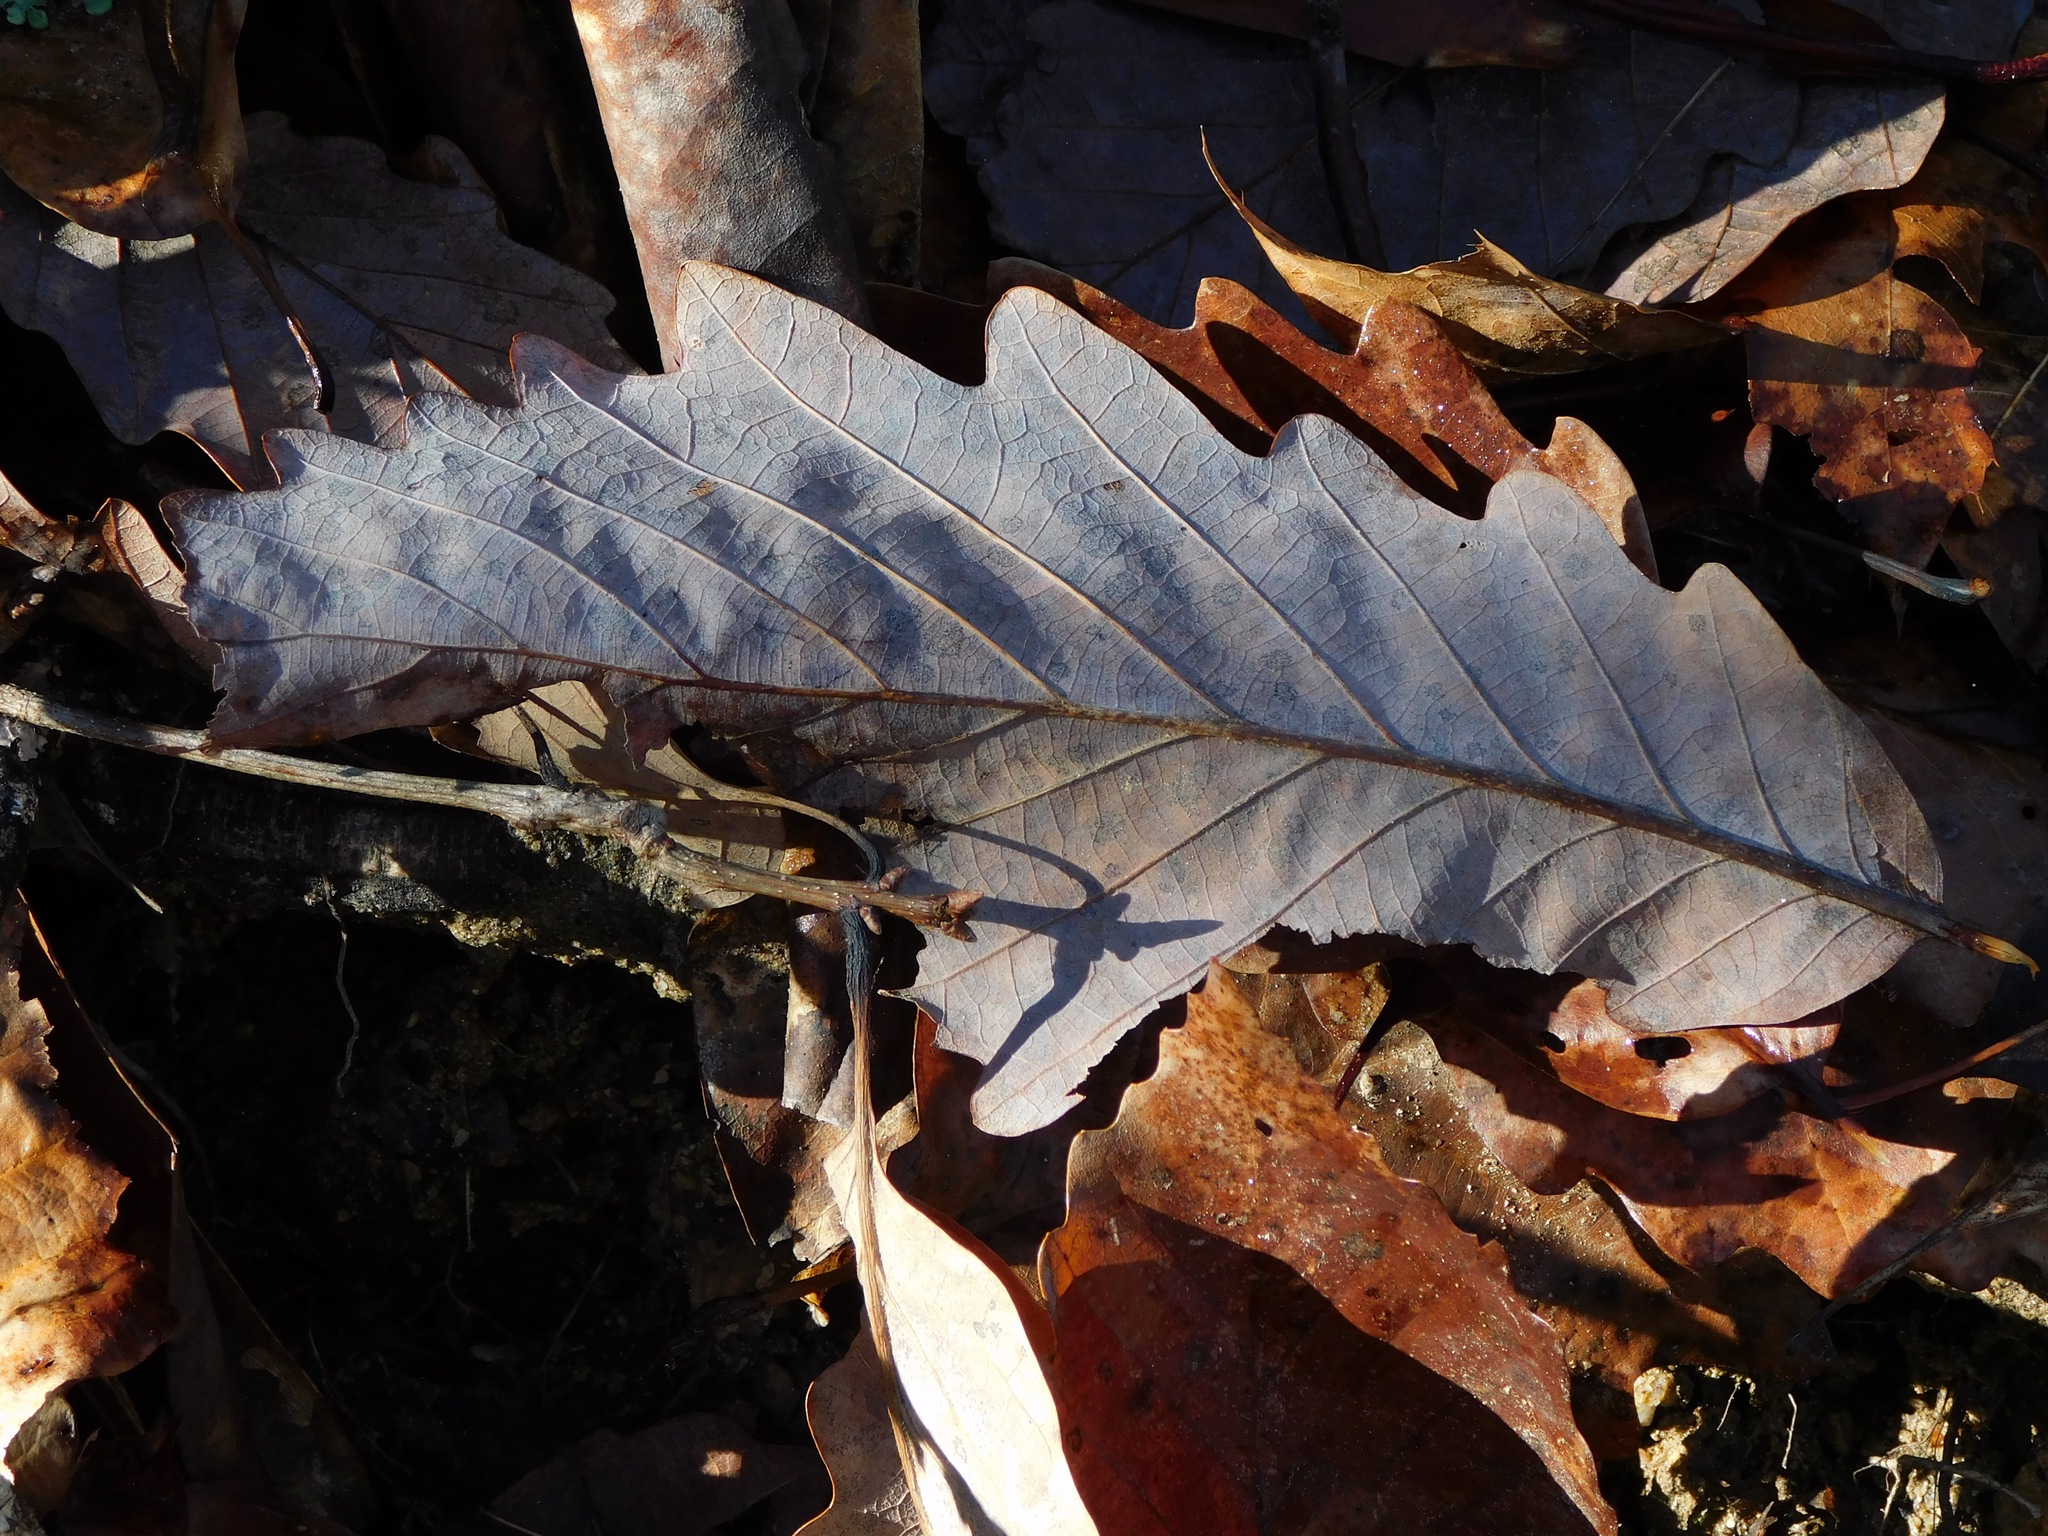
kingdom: Plantae
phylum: Tracheophyta
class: Magnoliopsida
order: Fagales
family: Fagaceae
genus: Quercus
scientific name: Quercus montana
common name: Chestnut oak
